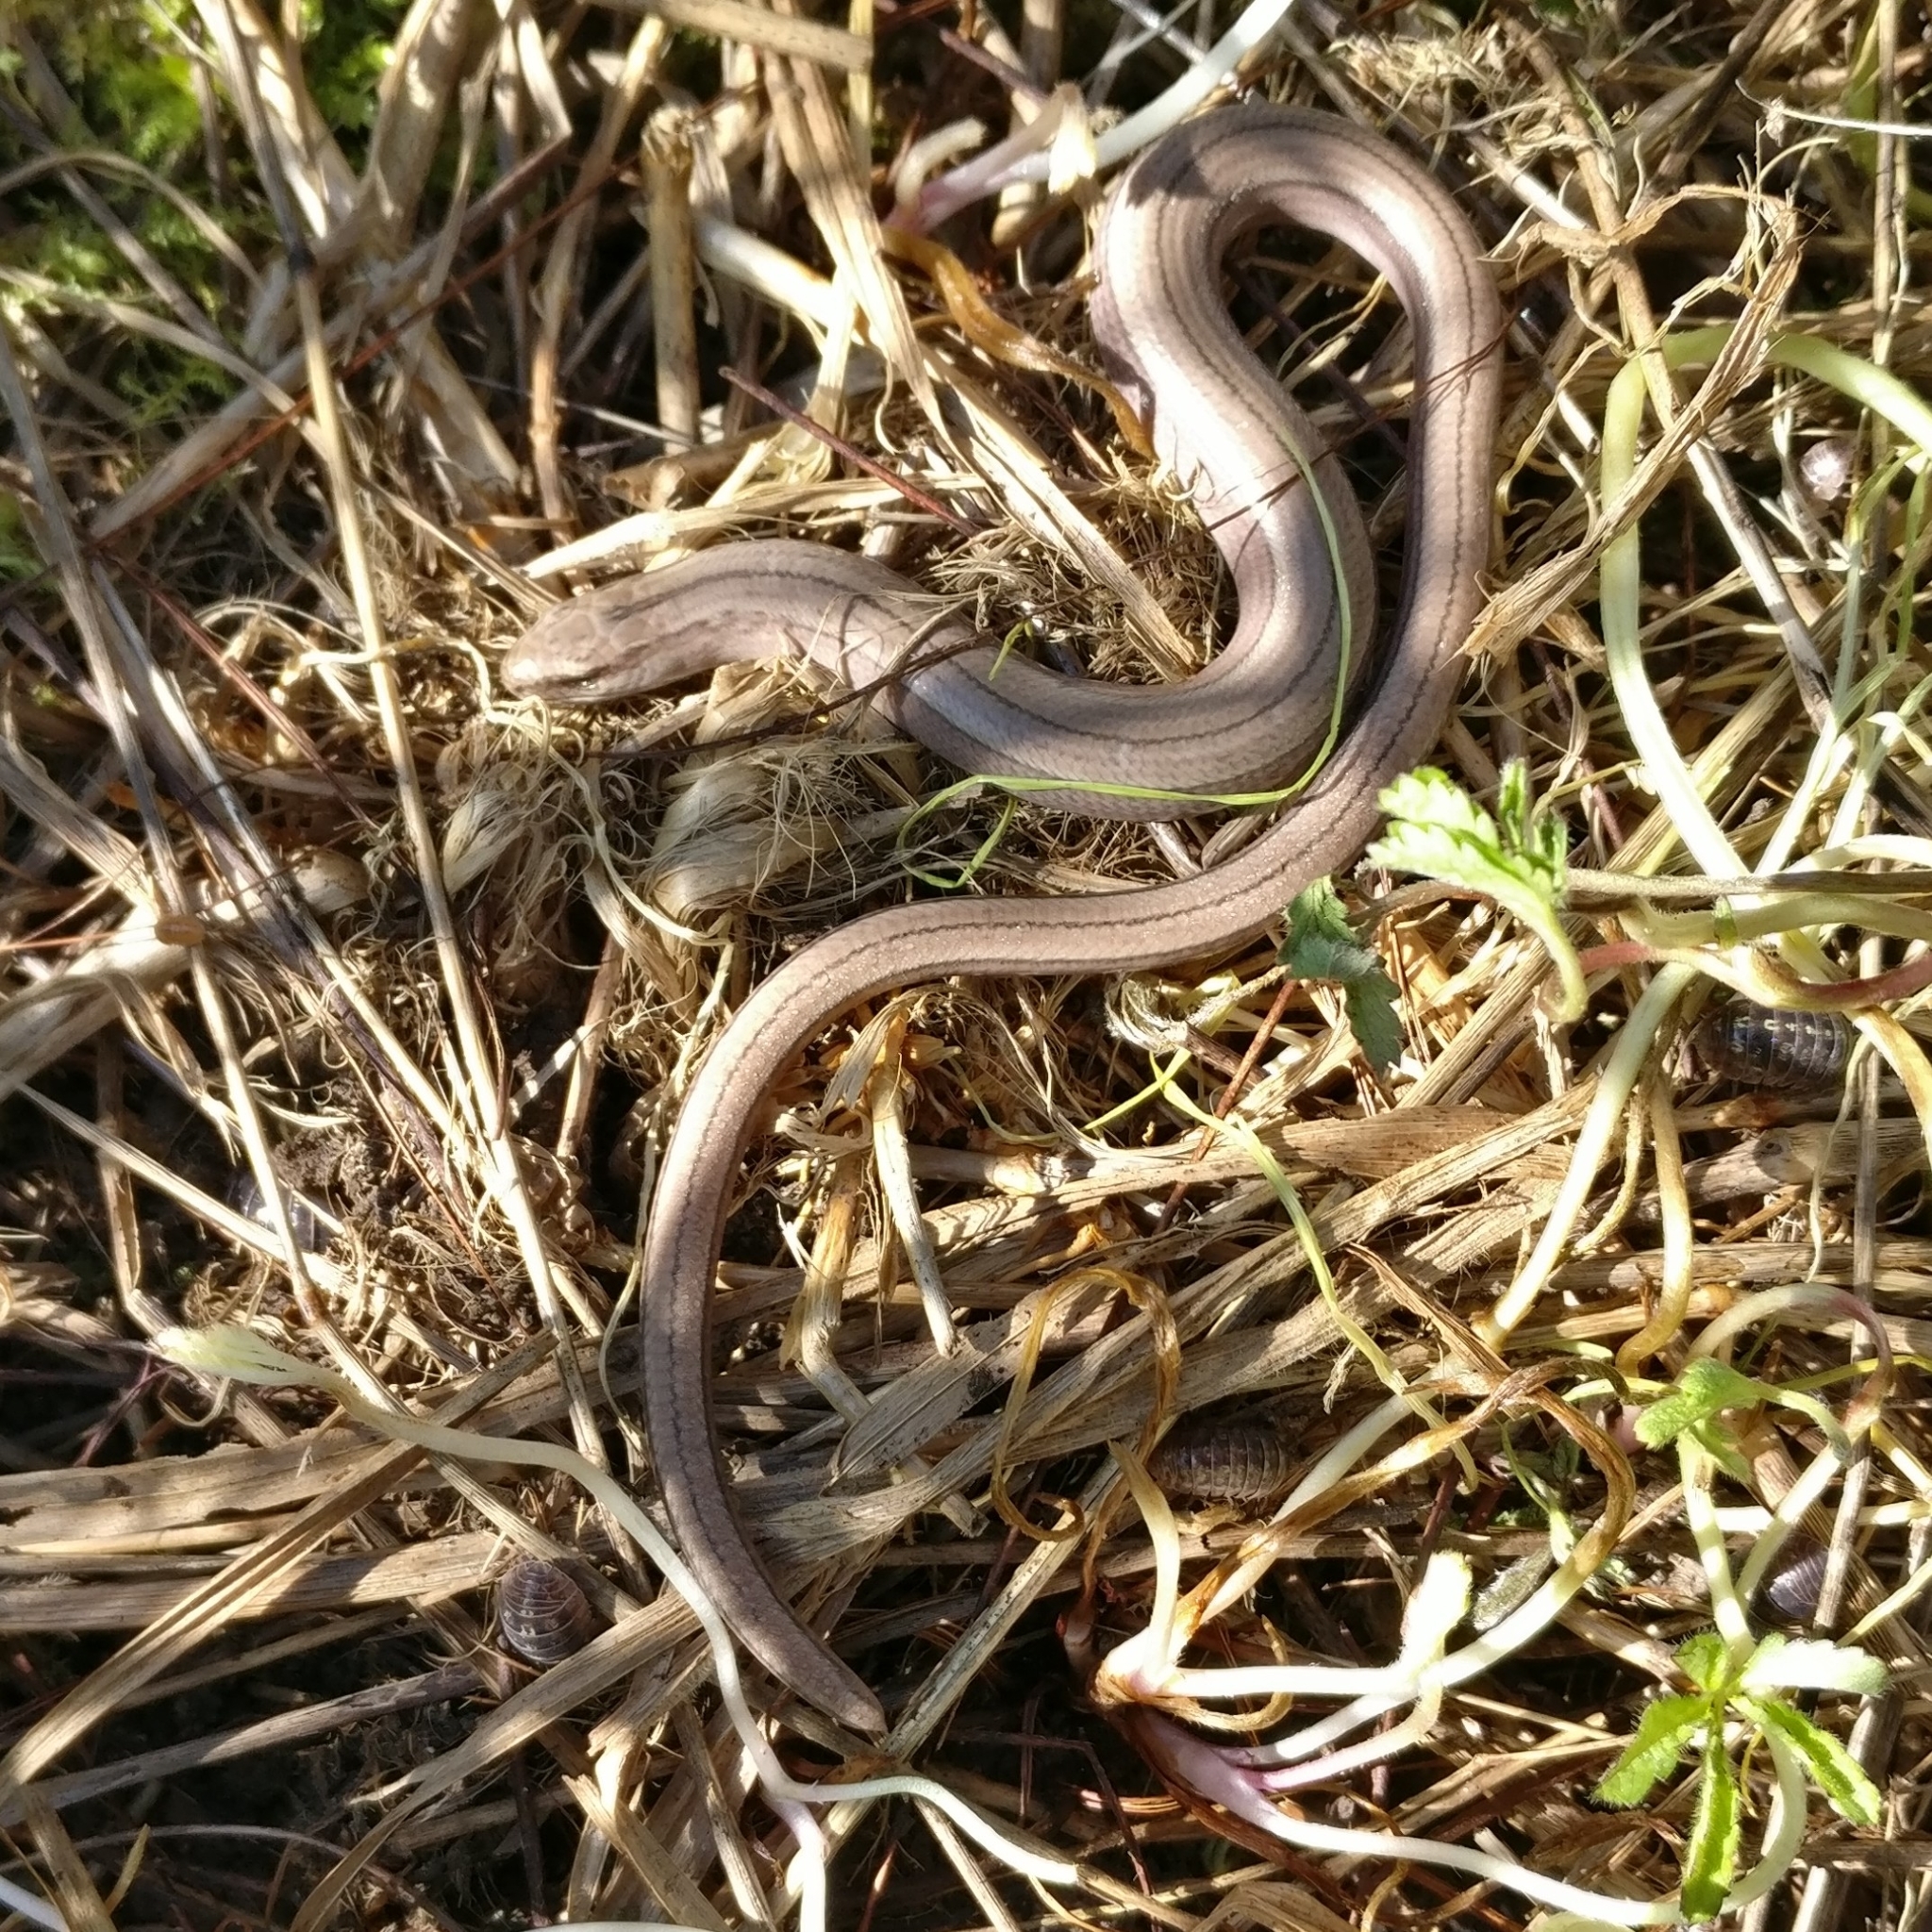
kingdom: Animalia
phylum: Chordata
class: Squamata
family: Anguidae
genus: Anguis
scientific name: Anguis fragilis
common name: Slow worm
